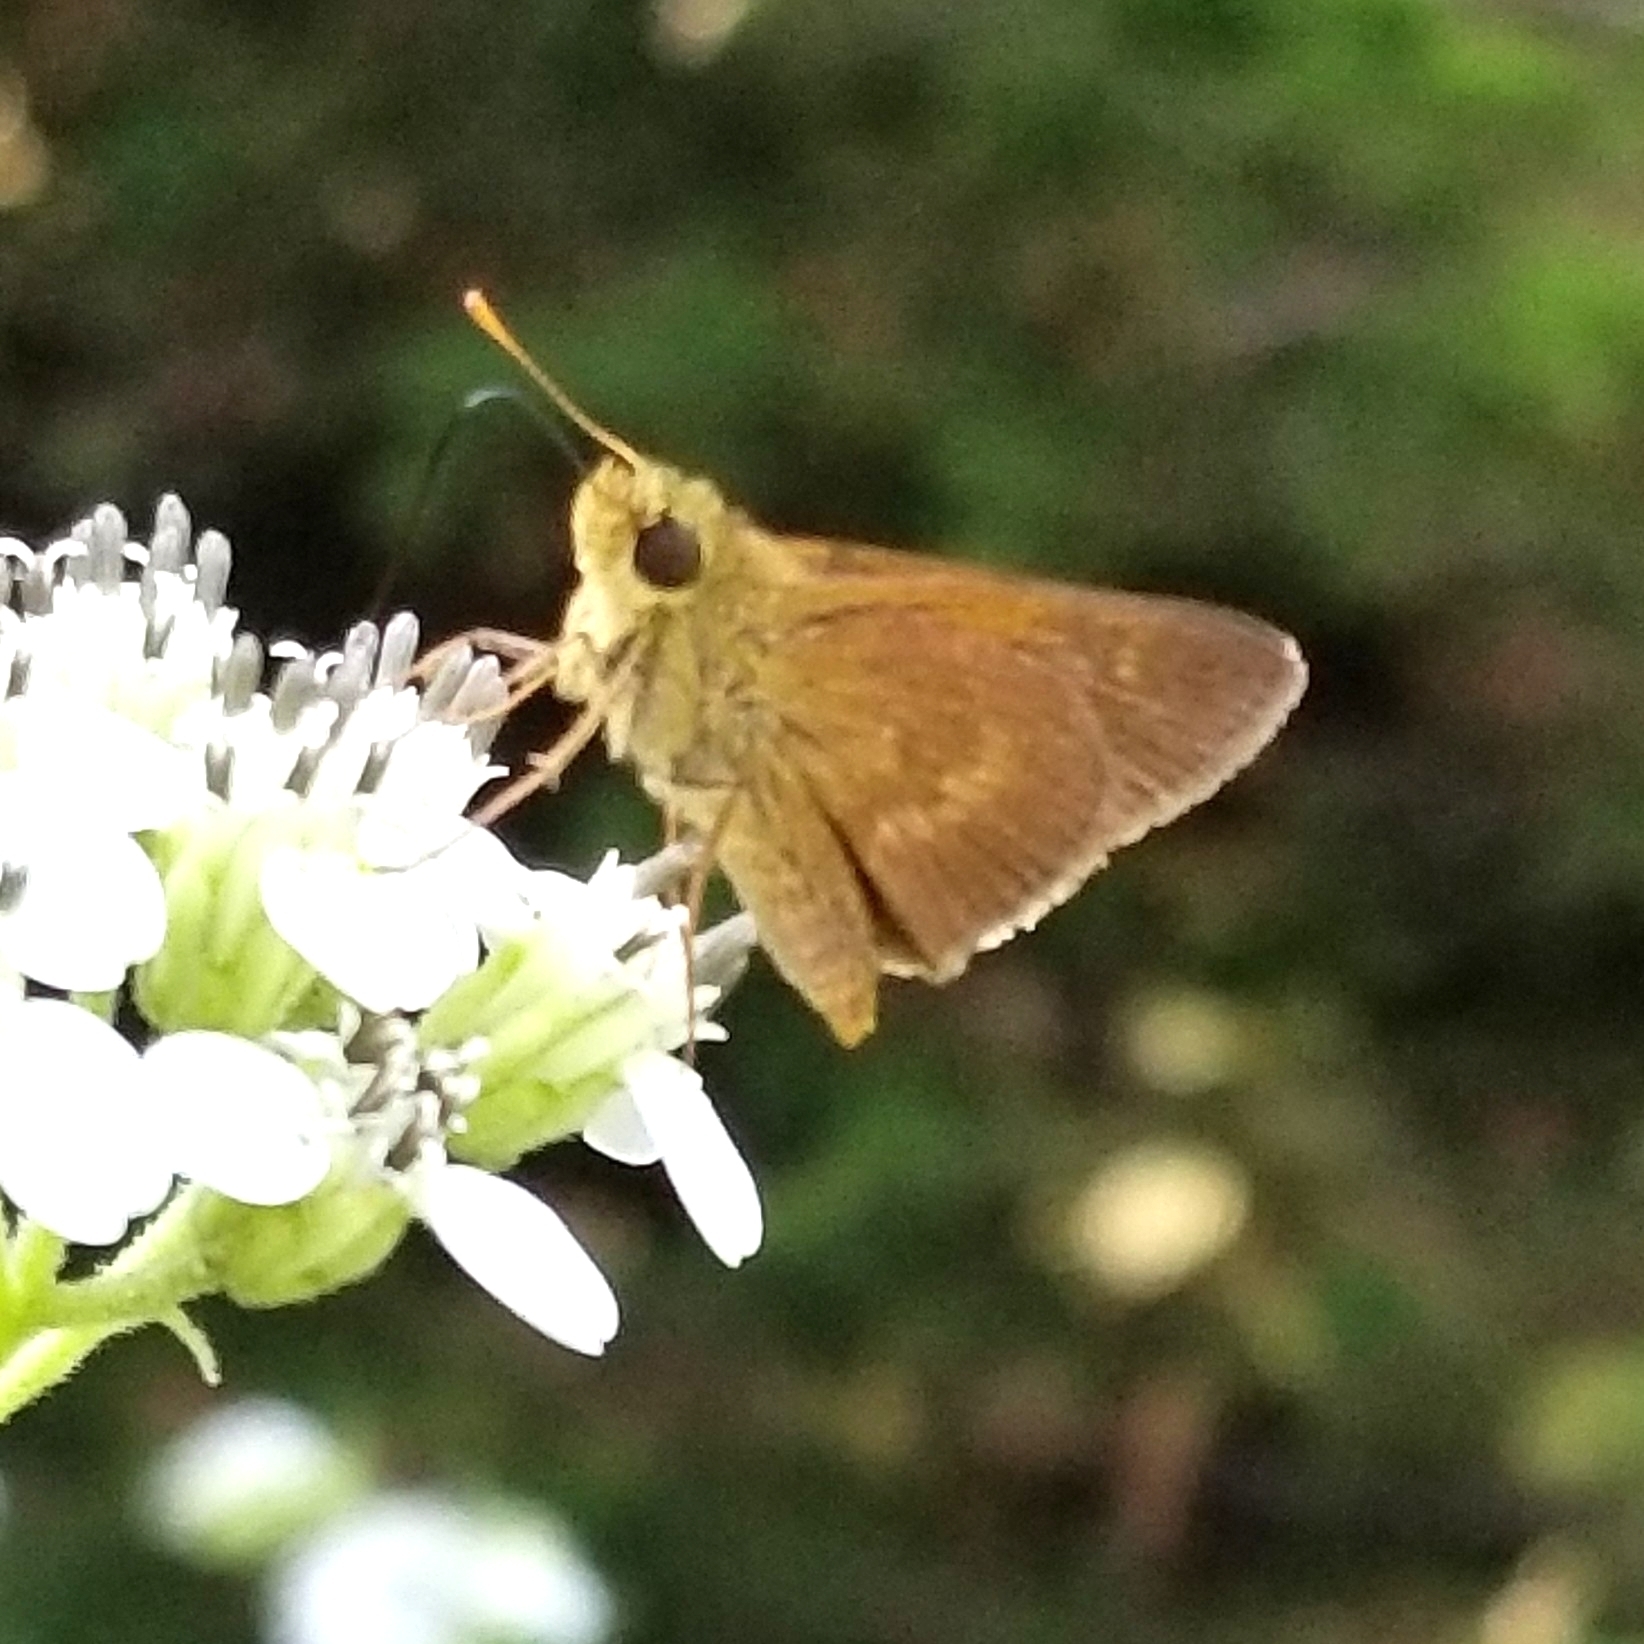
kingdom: Animalia
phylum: Arthropoda
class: Insecta
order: Lepidoptera
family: Hesperiidae
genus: Polites
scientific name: Polites otho
